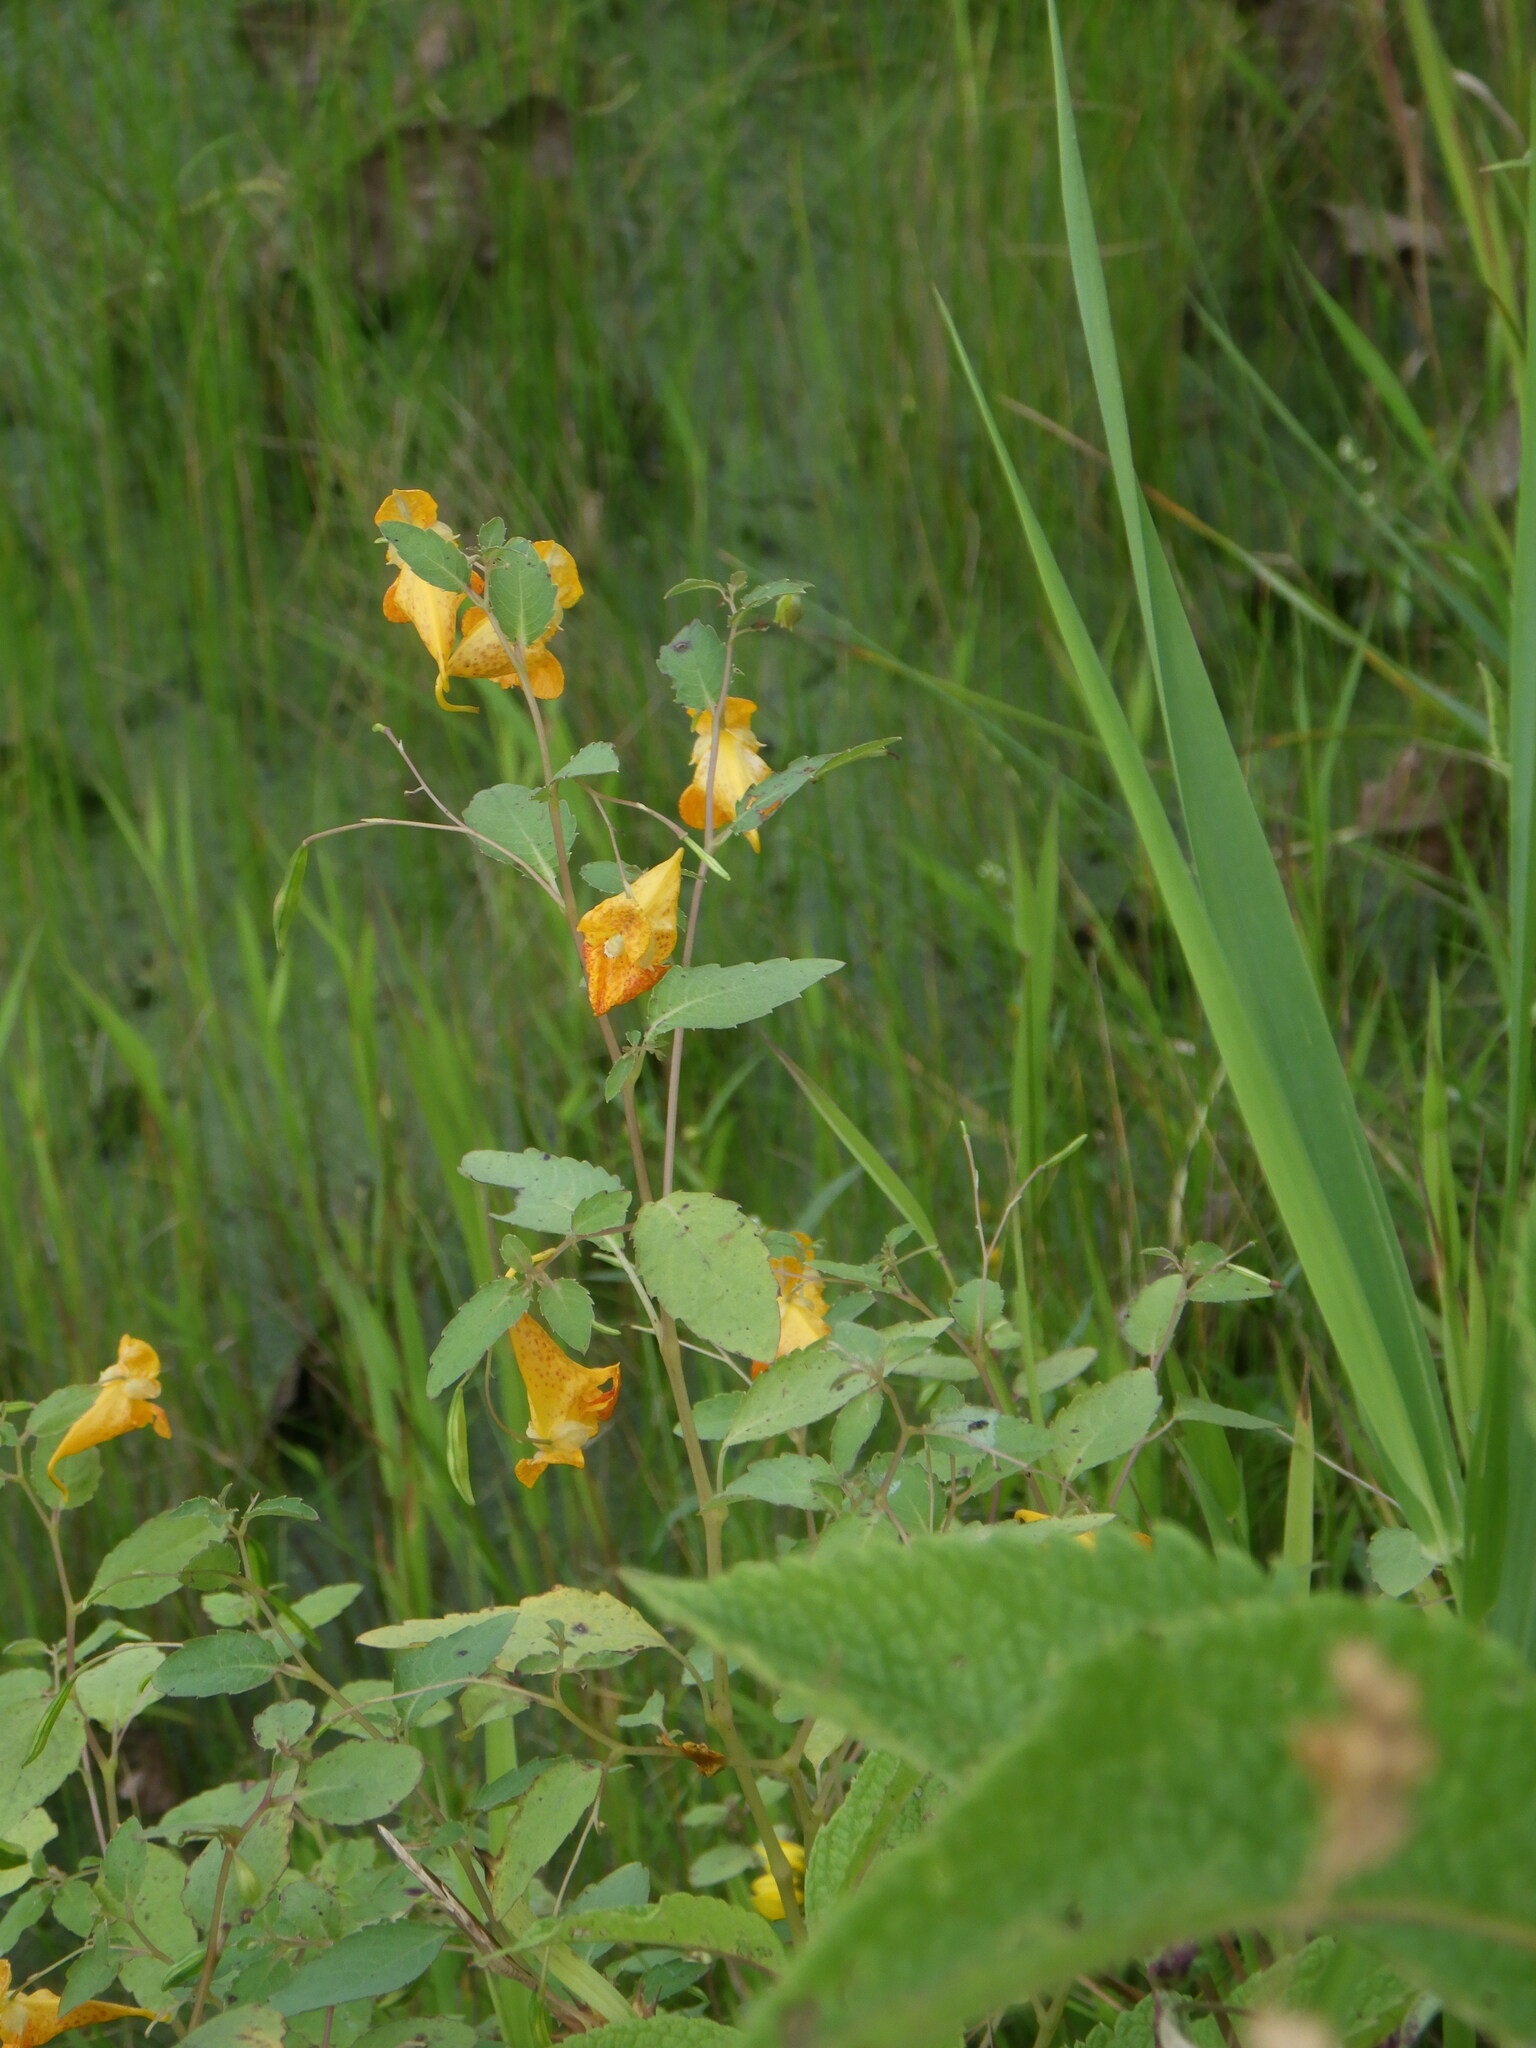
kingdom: Plantae
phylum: Tracheophyta
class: Magnoliopsida
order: Ericales
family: Balsaminaceae
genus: Impatiens
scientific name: Impatiens capensis
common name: Orange balsam
